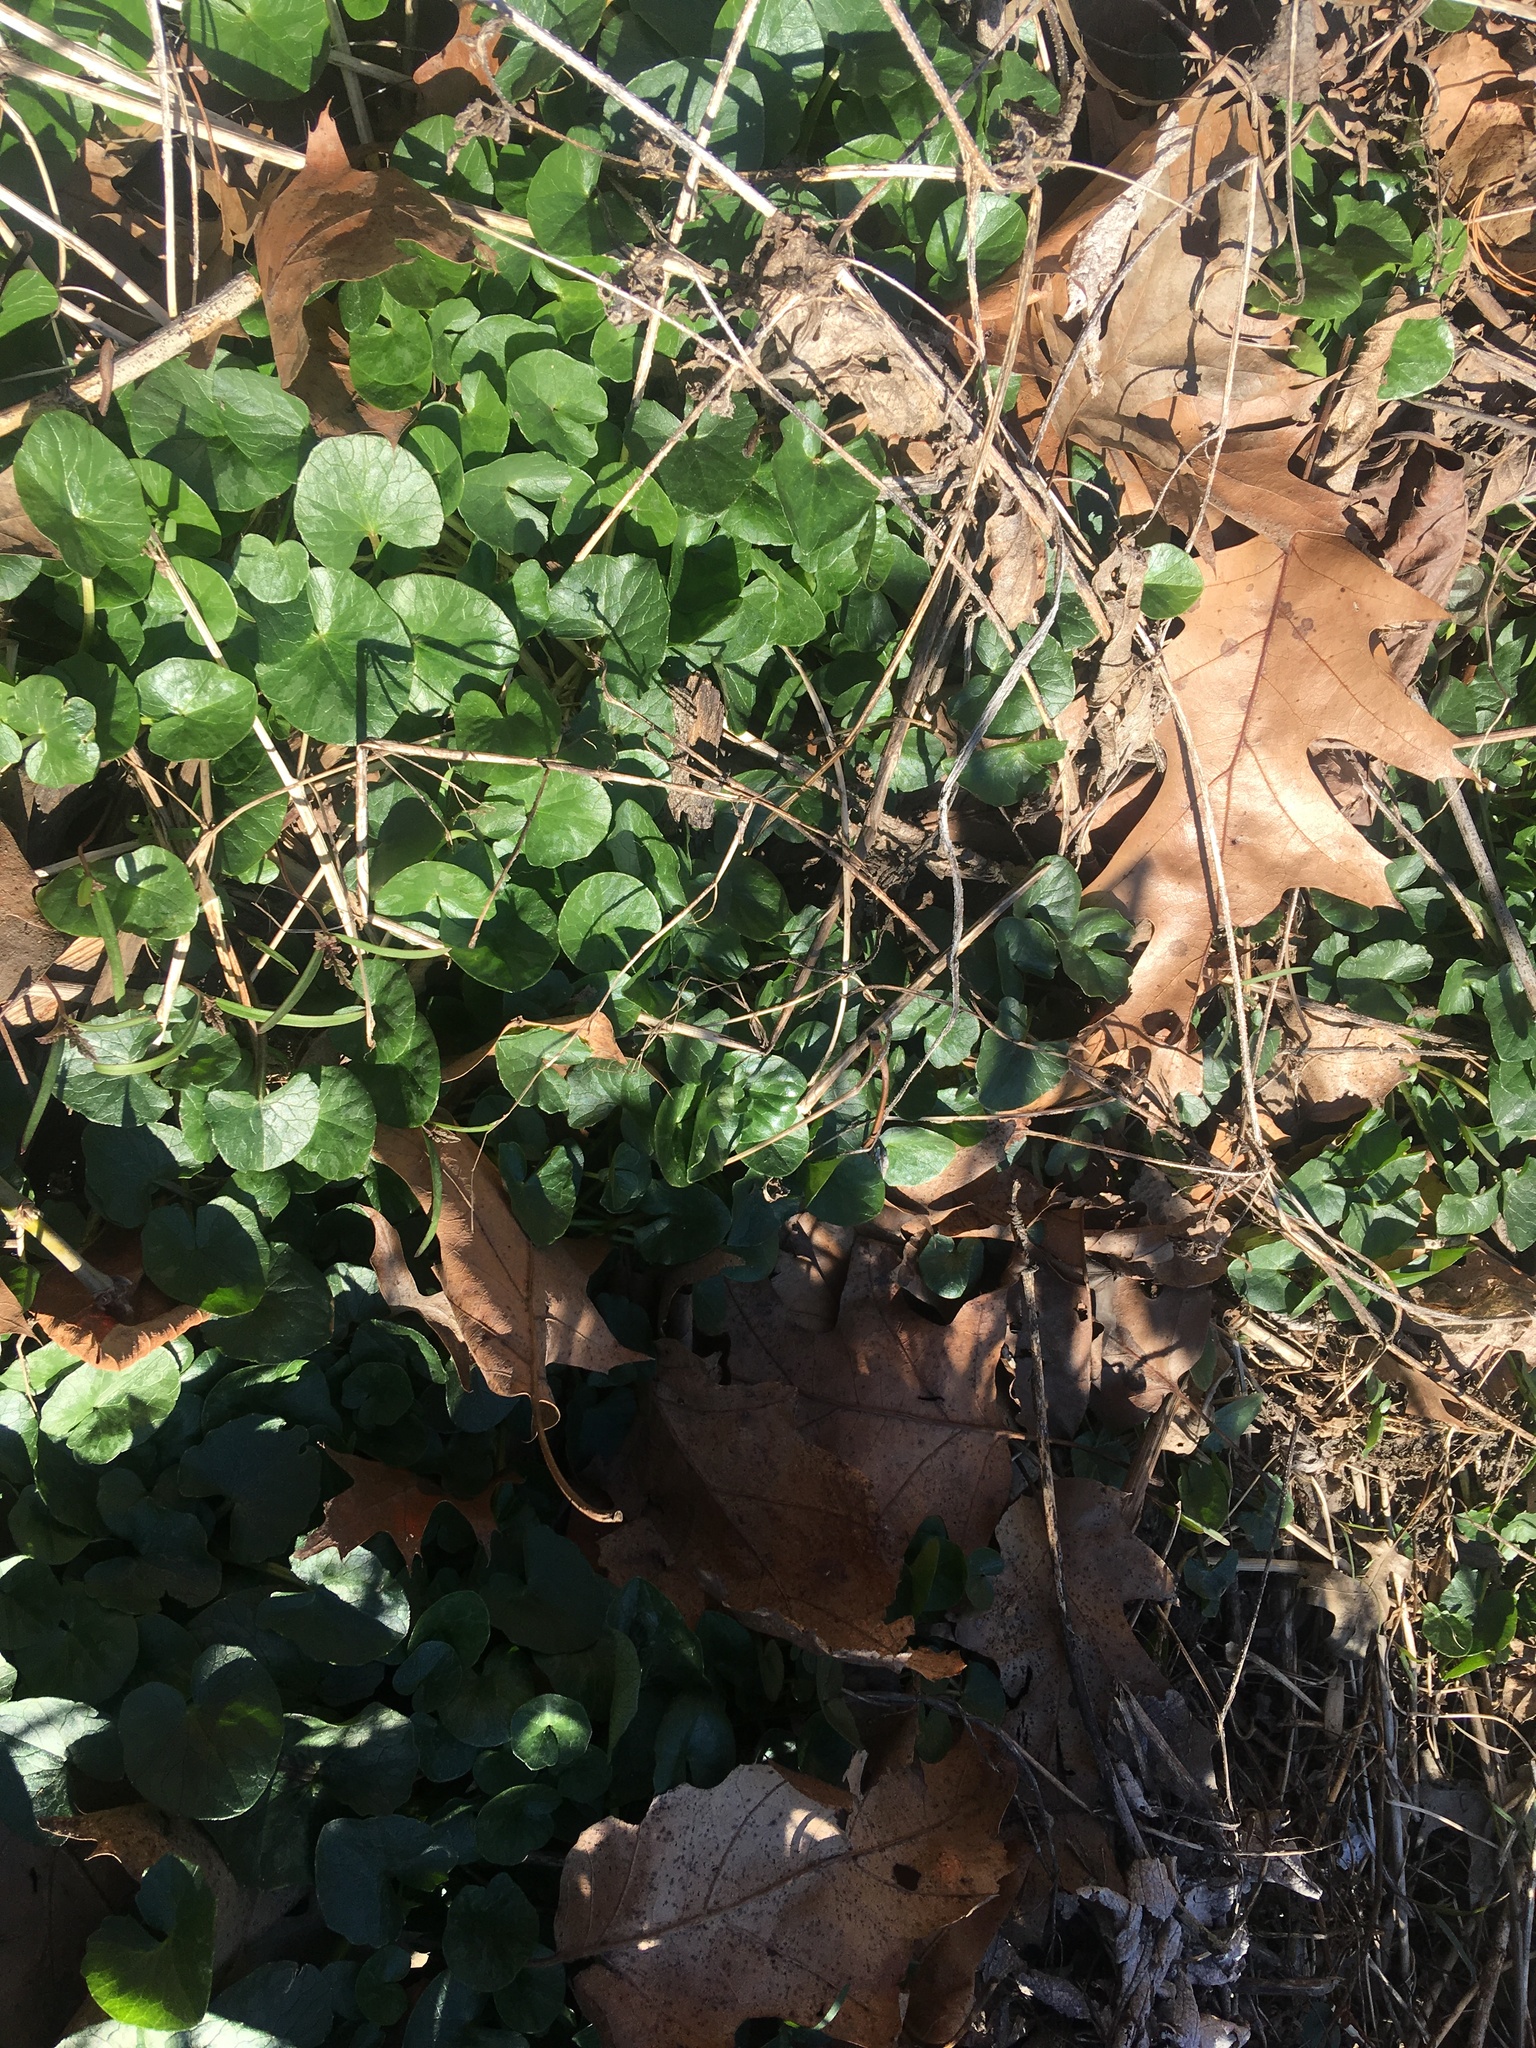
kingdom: Plantae
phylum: Tracheophyta
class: Magnoliopsida
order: Ranunculales
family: Ranunculaceae
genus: Ficaria
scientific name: Ficaria verna
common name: Lesser celandine
